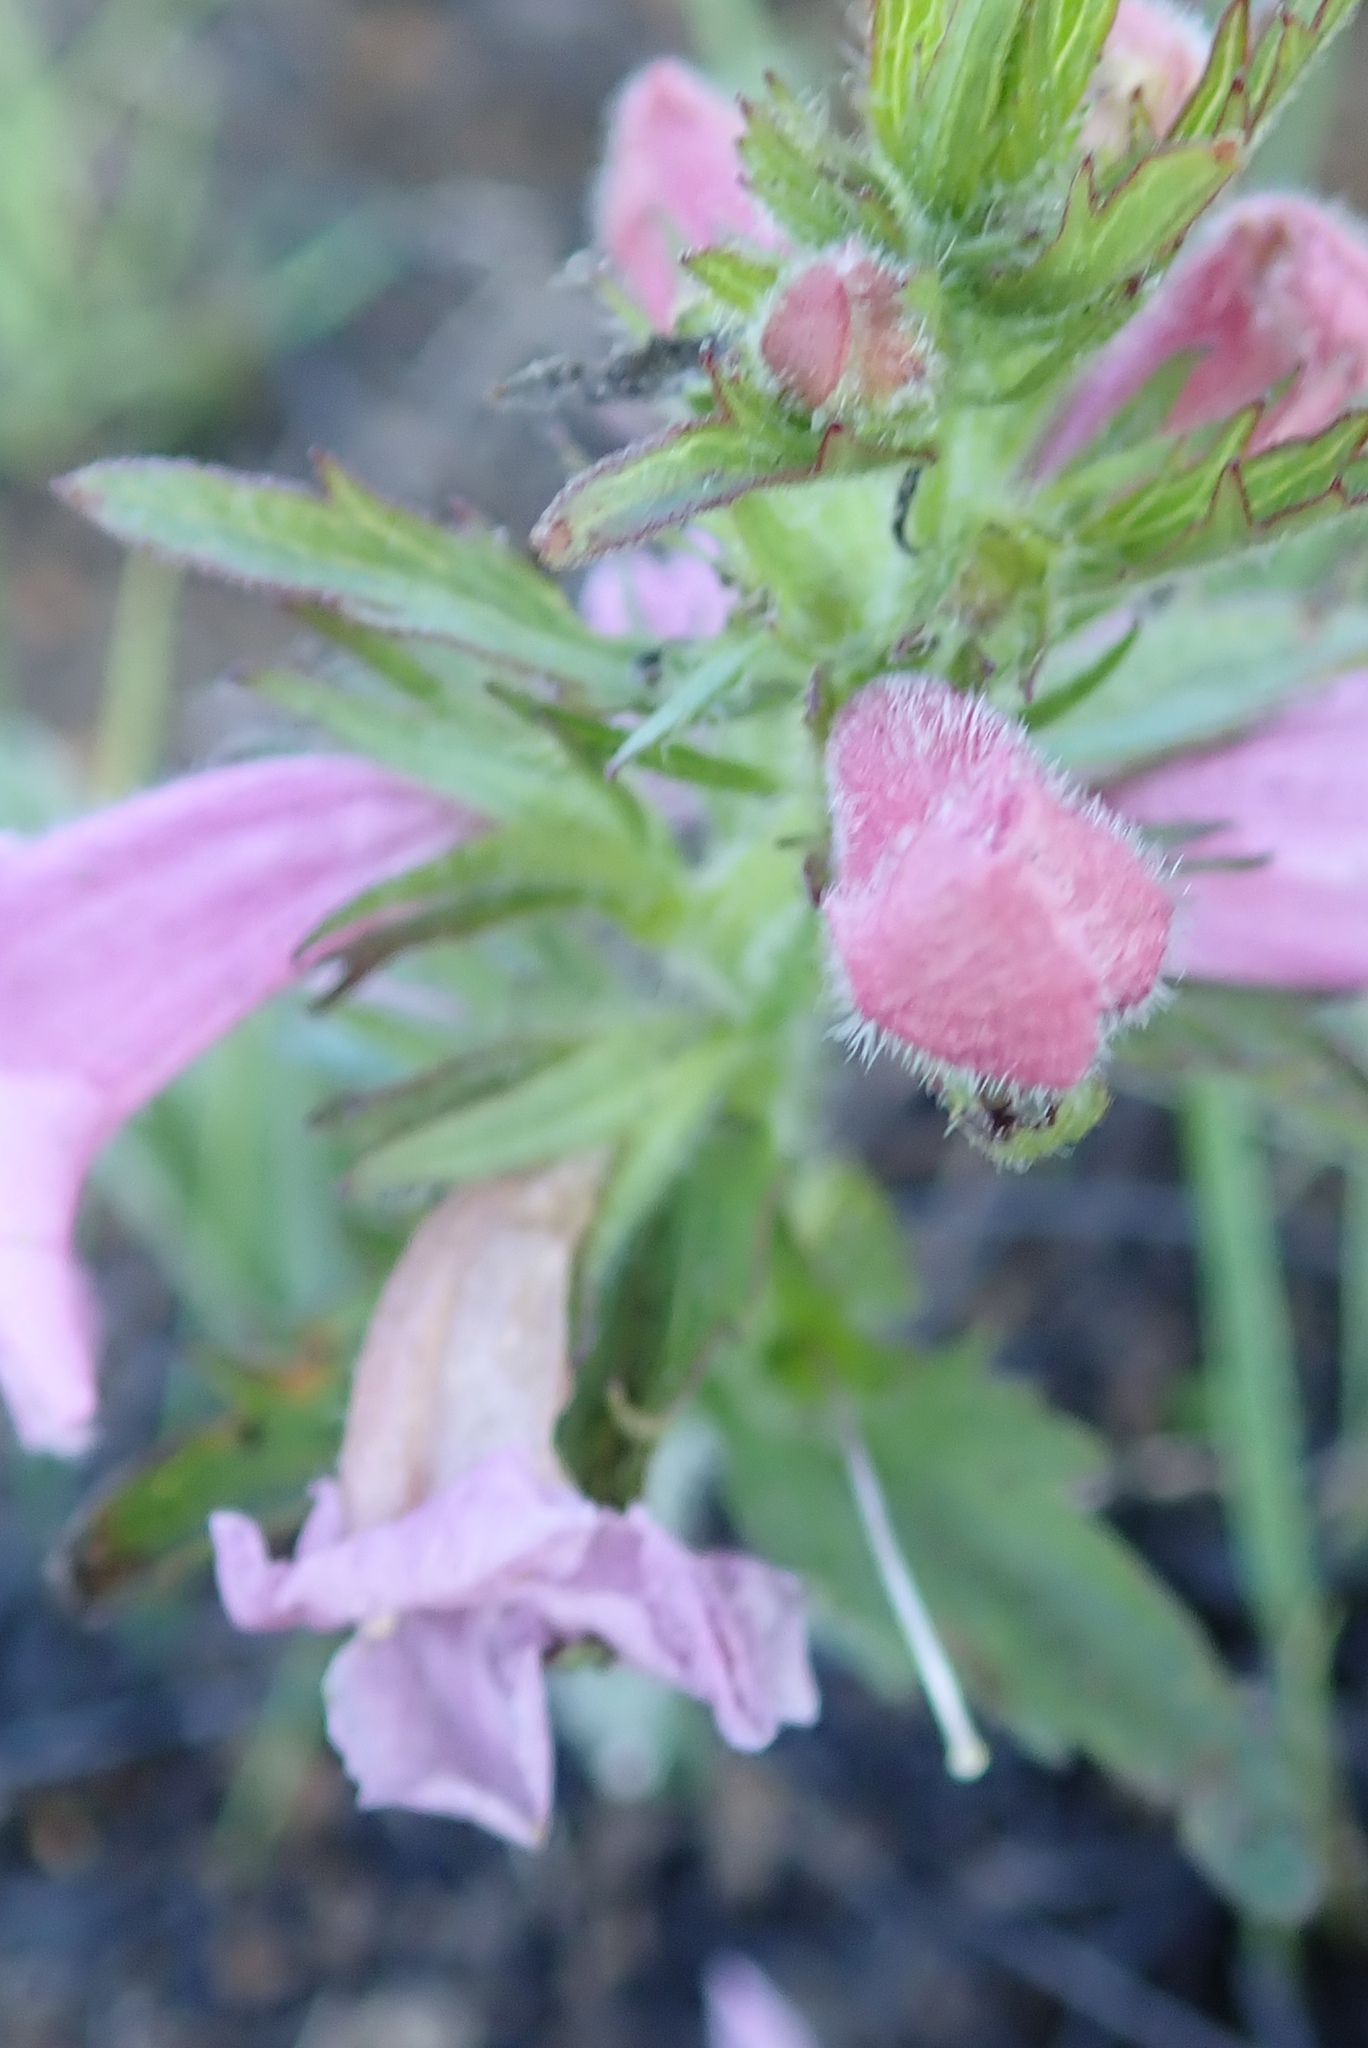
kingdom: Plantae
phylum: Tracheophyta
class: Magnoliopsida
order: Lamiales
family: Orobanchaceae
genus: Graderia
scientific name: Graderia scabra
